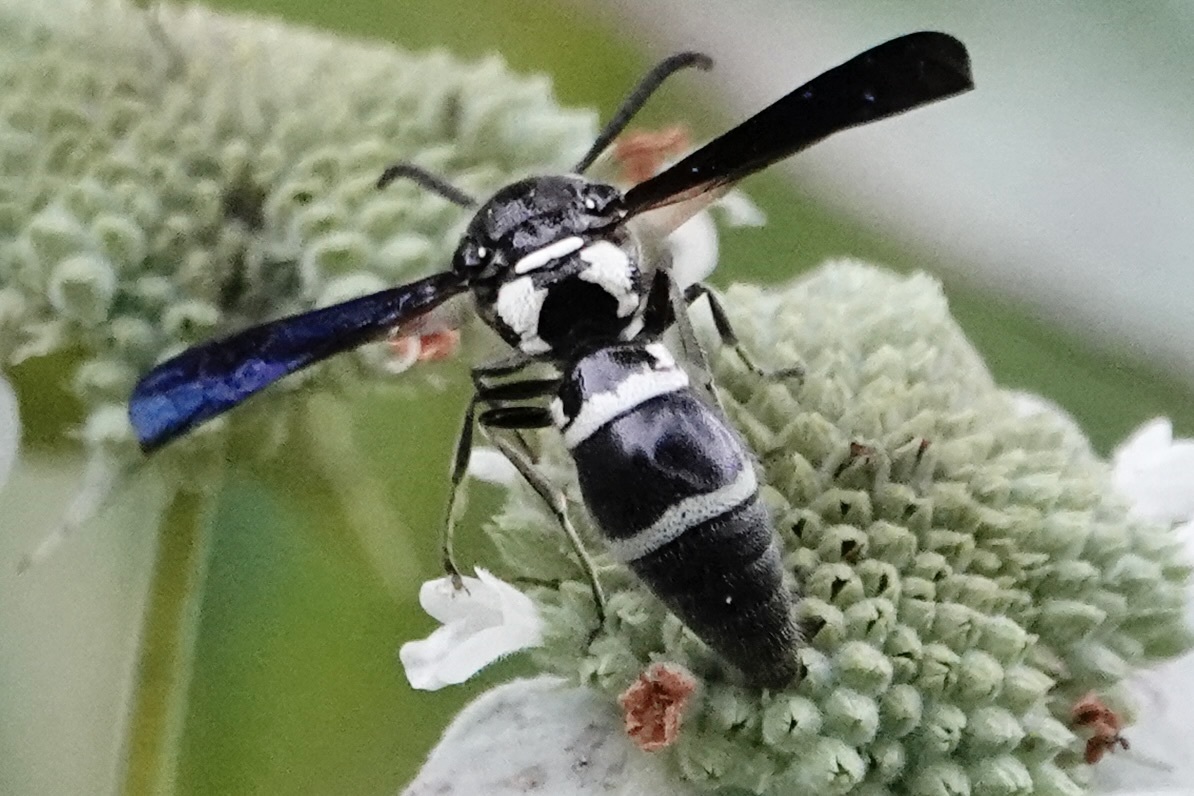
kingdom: Animalia
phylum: Arthropoda
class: Insecta
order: Hymenoptera
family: Eumenidae
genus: Pseudodynerus
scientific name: Pseudodynerus quadrisectus
